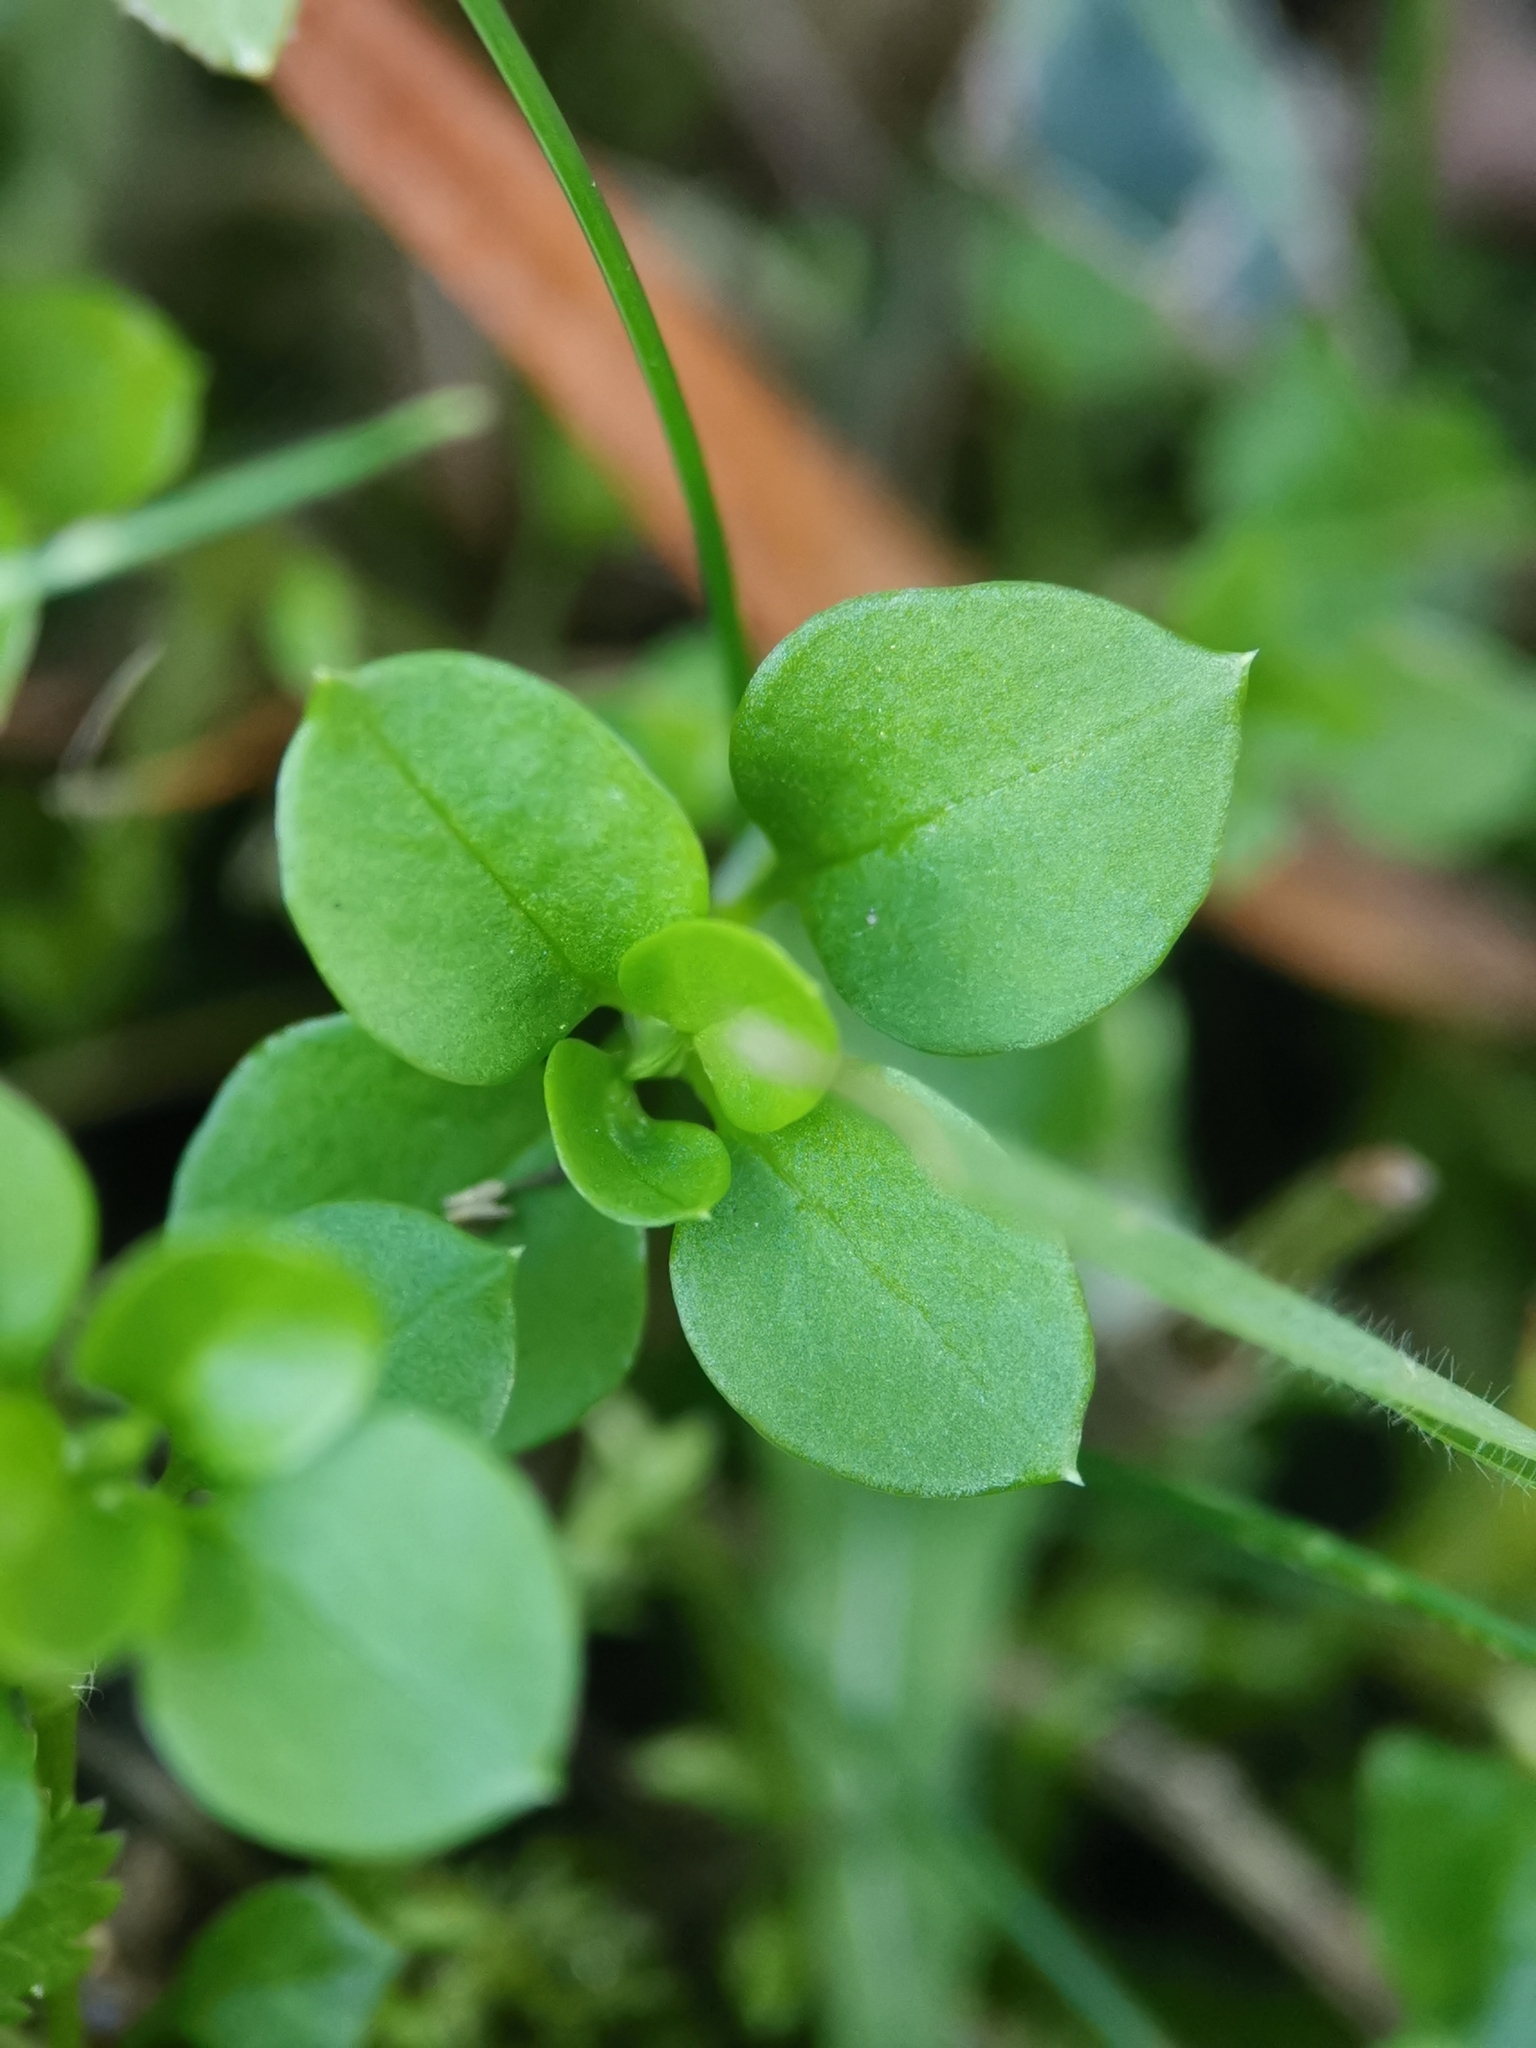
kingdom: Plantae
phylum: Tracheophyta
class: Magnoliopsida
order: Caryophyllales
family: Caryophyllaceae
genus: Stellaria
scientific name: Stellaria media
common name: Common chickweed
